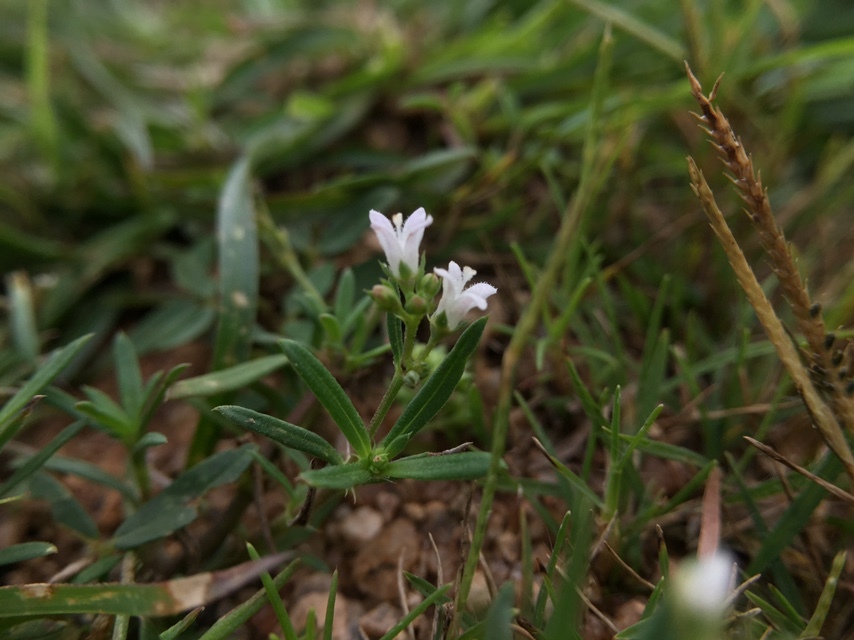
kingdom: Plantae
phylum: Tracheophyta
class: Magnoliopsida
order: Gentianales
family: Rubiaceae
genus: Kohautia
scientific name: Kohautia aspera
